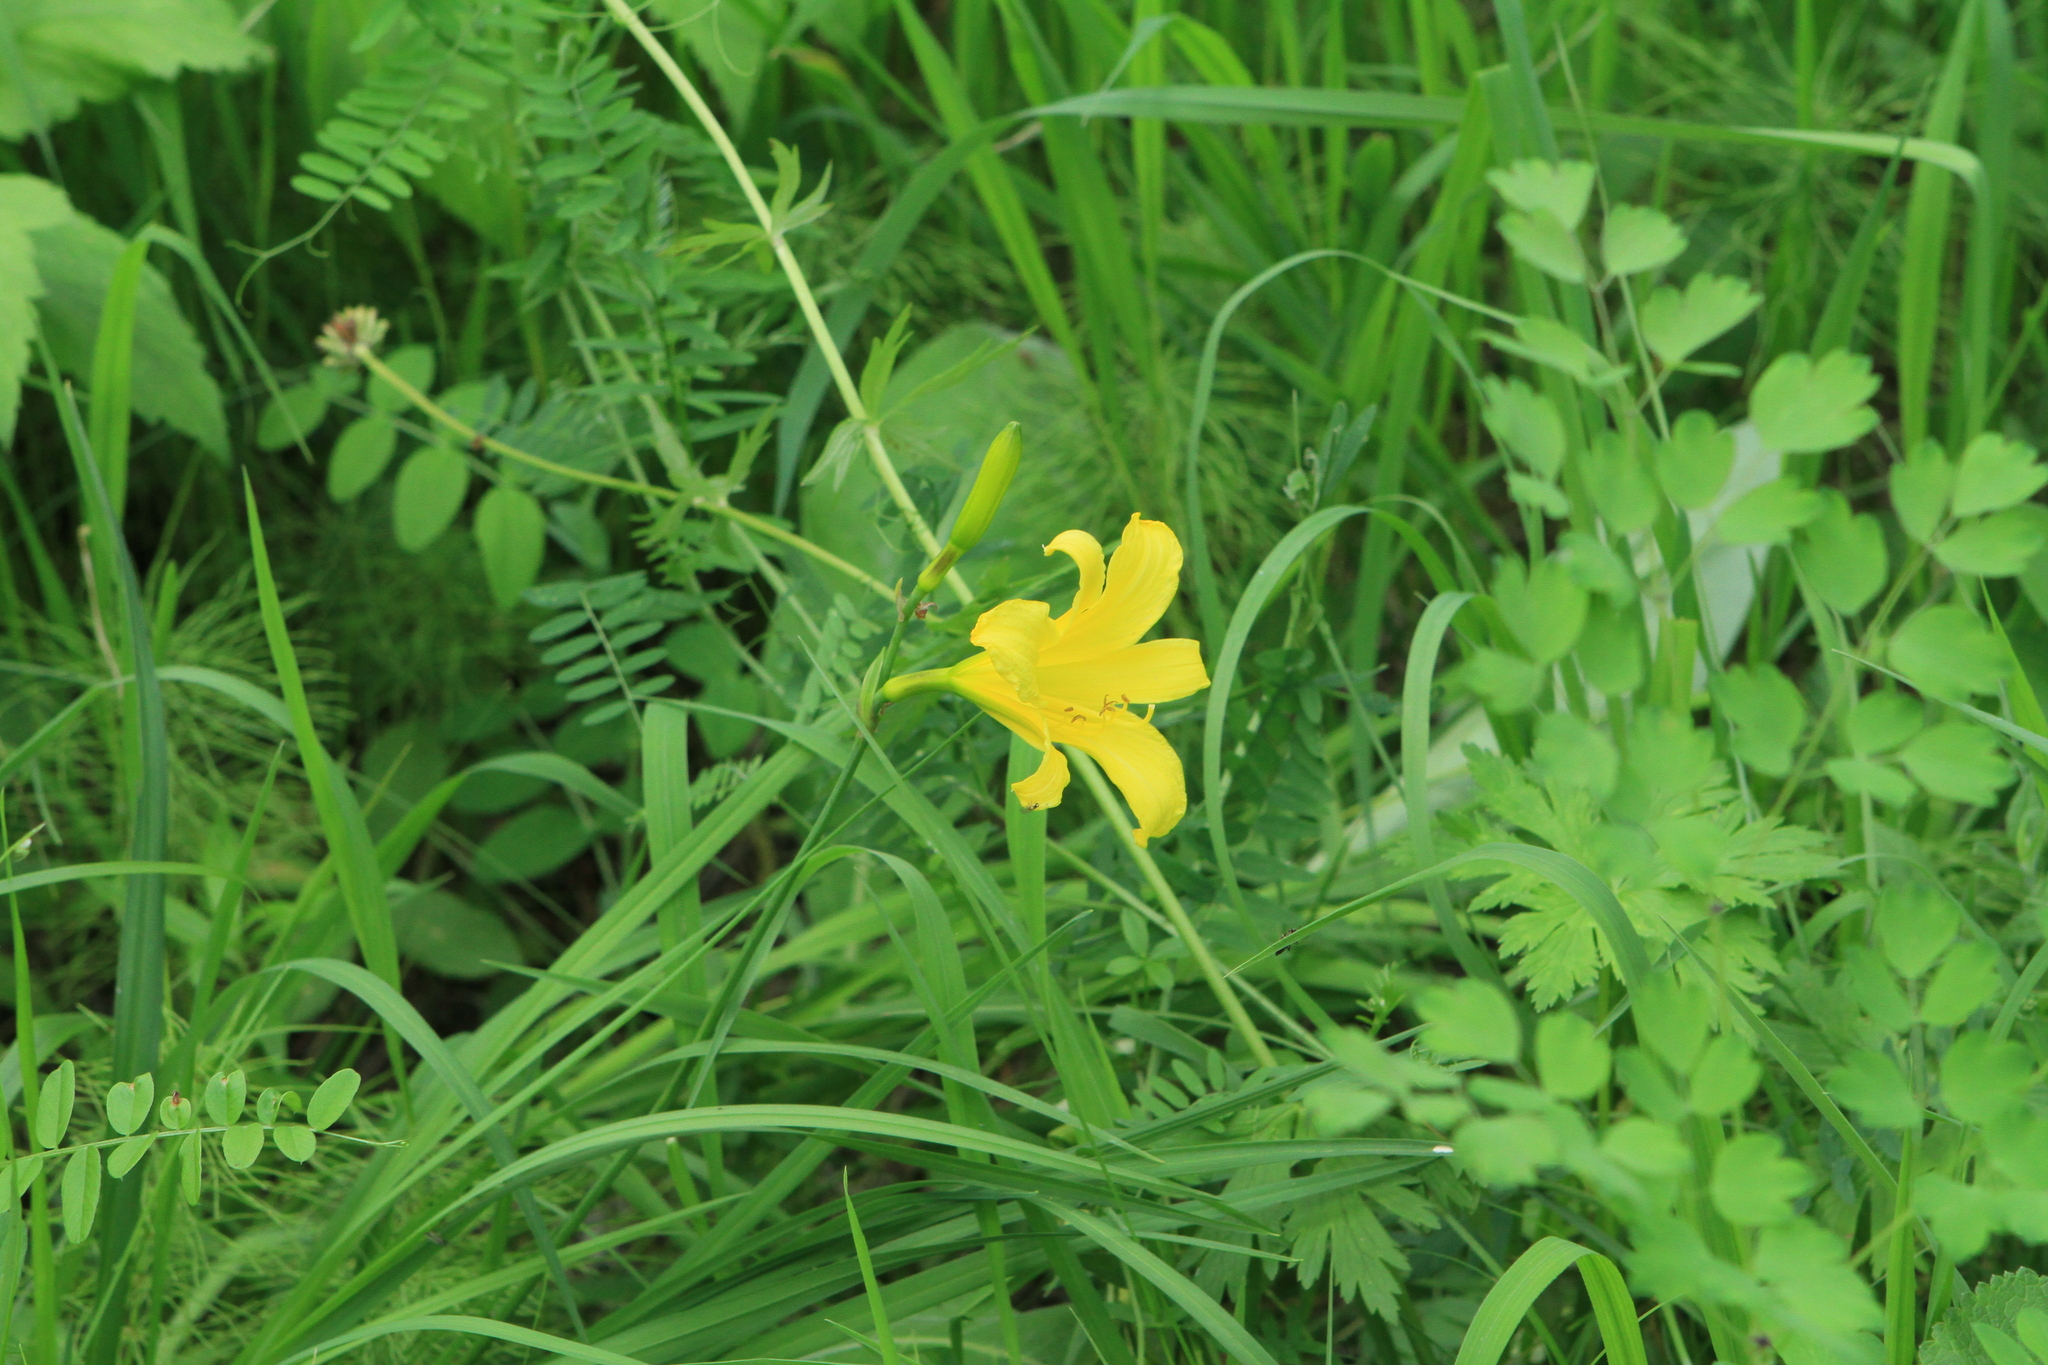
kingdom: Plantae
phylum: Tracheophyta
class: Liliopsida
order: Asparagales
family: Asphodelaceae
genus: Hemerocallis
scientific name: Hemerocallis minor
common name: Small daylily
